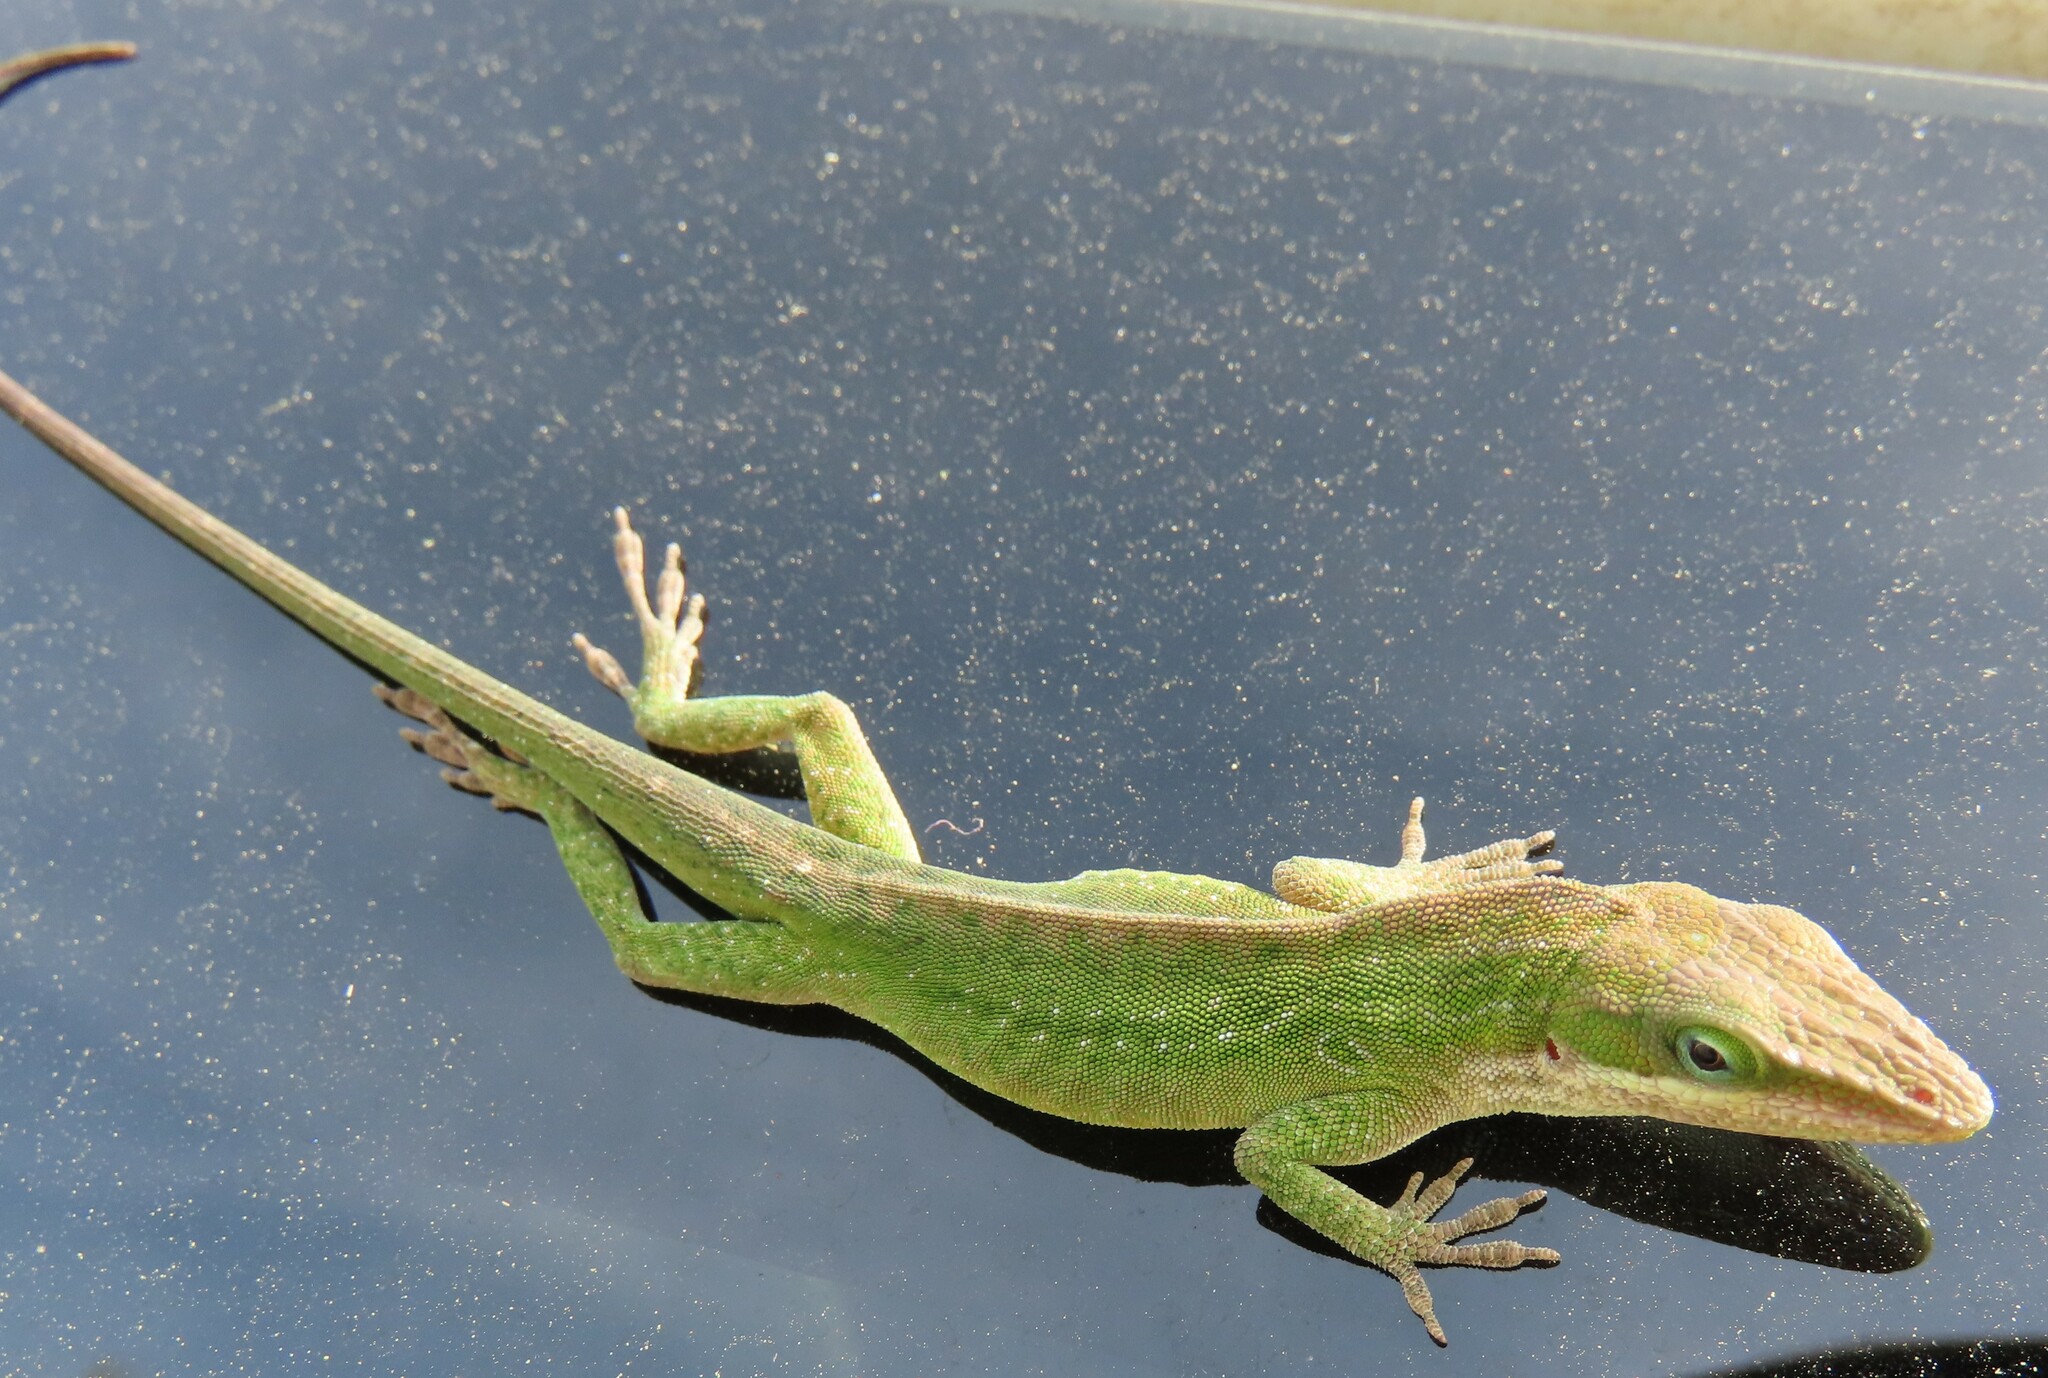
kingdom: Animalia
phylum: Chordata
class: Squamata
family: Dactyloidae
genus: Anolis
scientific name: Anolis carolinensis
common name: Green anole
